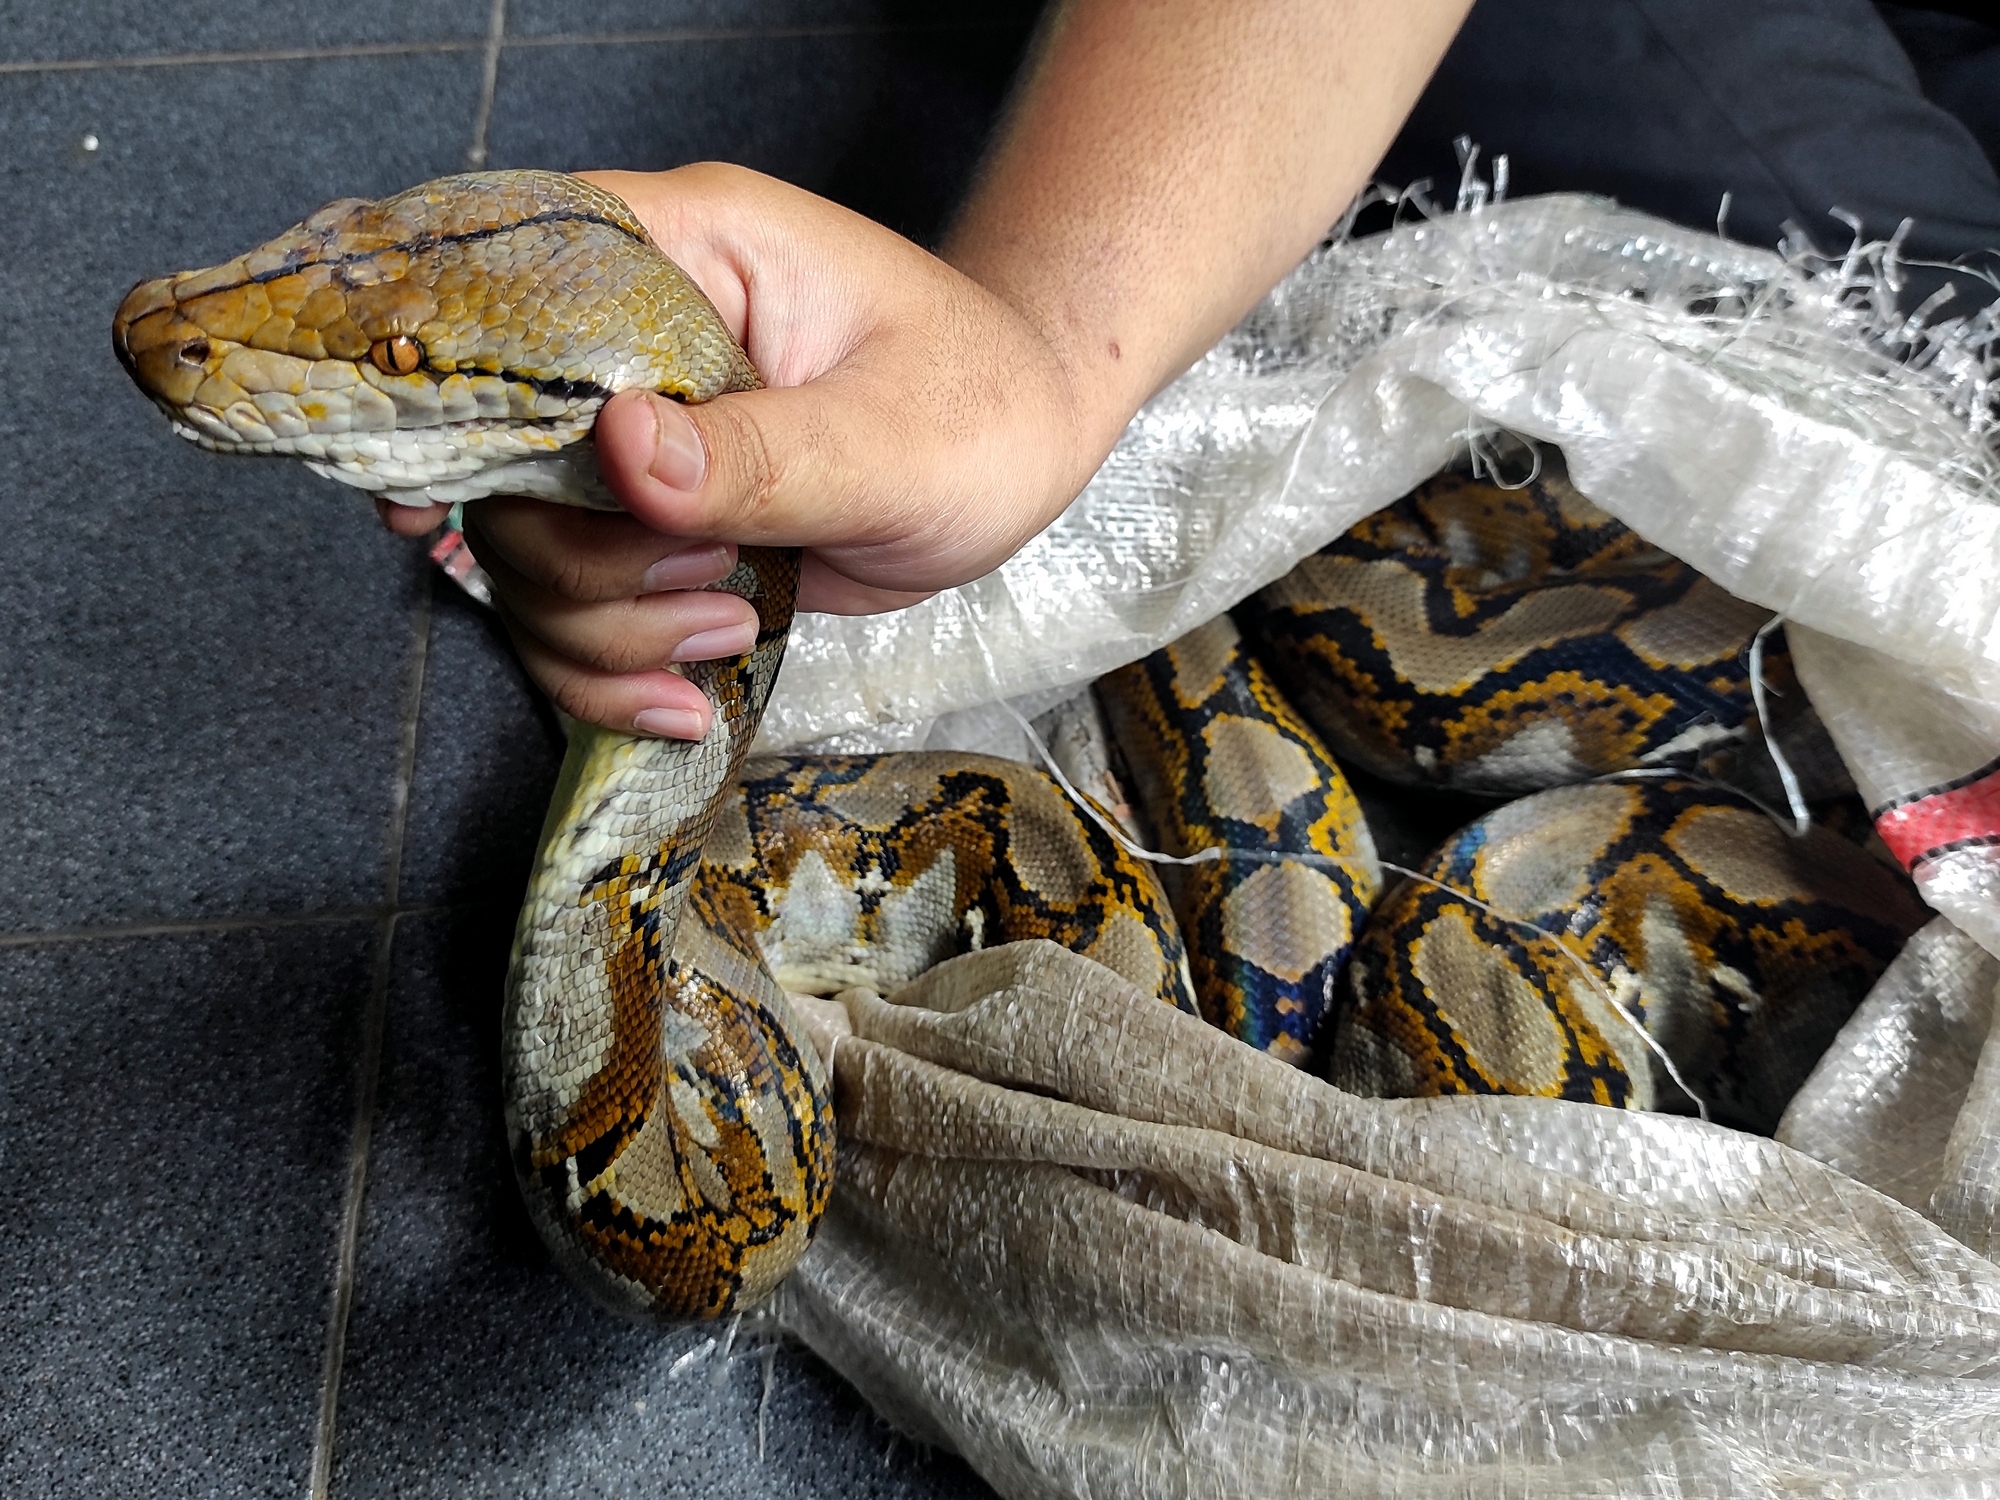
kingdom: Animalia
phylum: Chordata
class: Squamata
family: Pythonidae
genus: Malayopython
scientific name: Malayopython reticulatus
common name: Reticulated python
